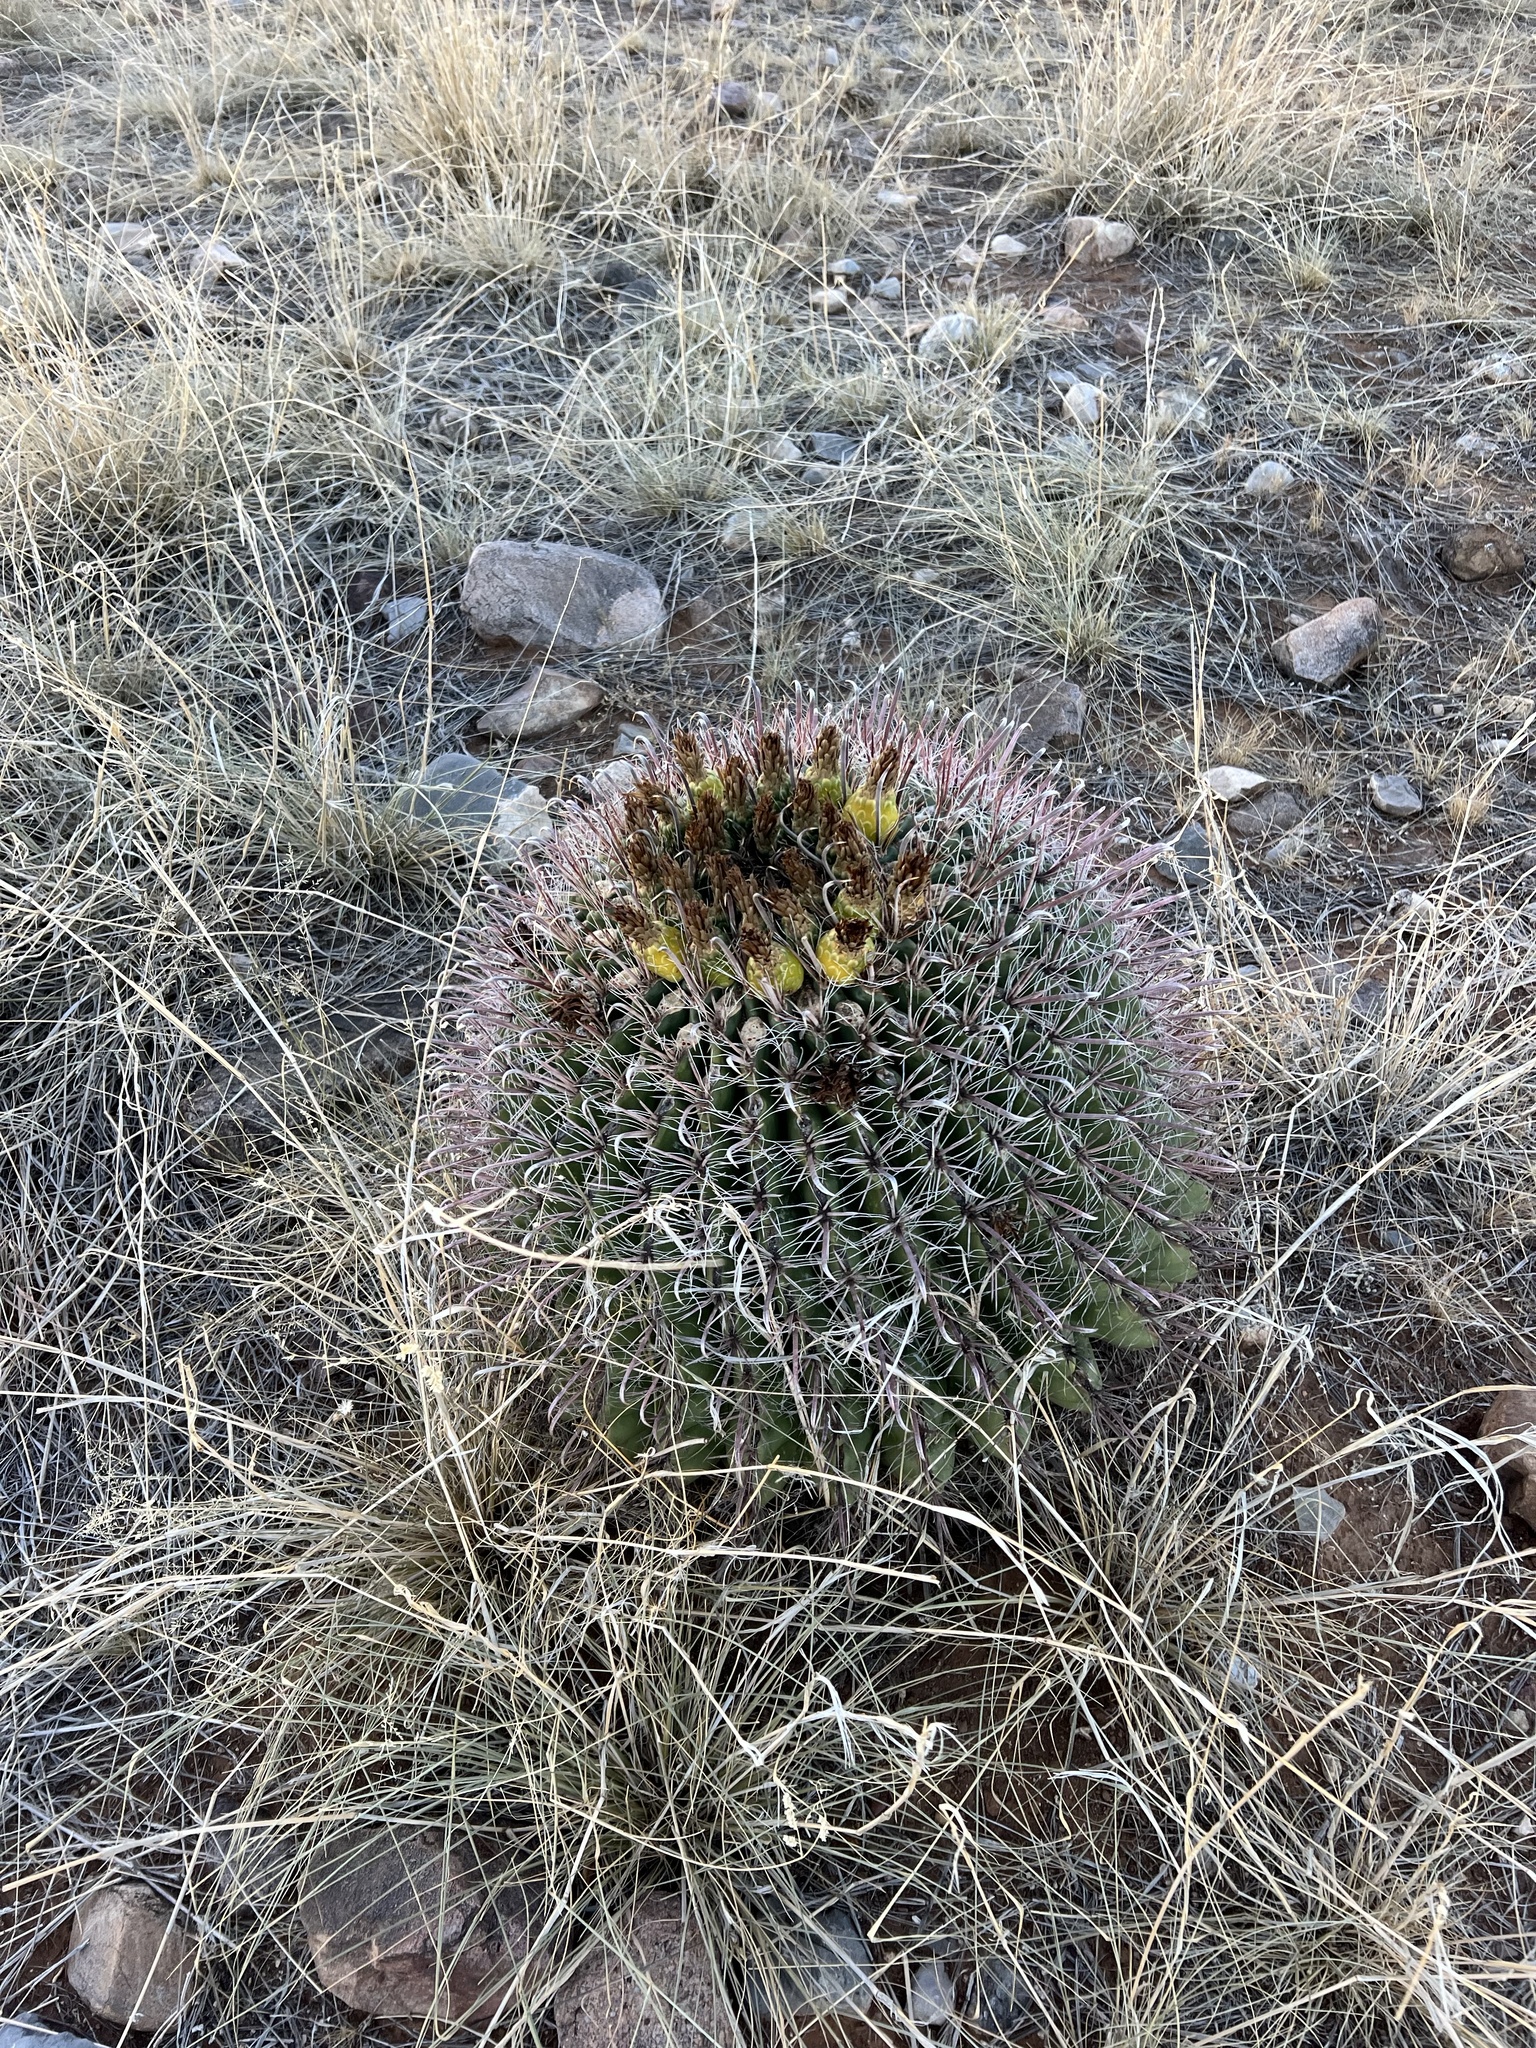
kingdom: Plantae
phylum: Tracheophyta
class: Magnoliopsida
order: Caryophyllales
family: Cactaceae
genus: Ferocactus
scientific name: Ferocactus wislizeni
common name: Candy barrel cactus
